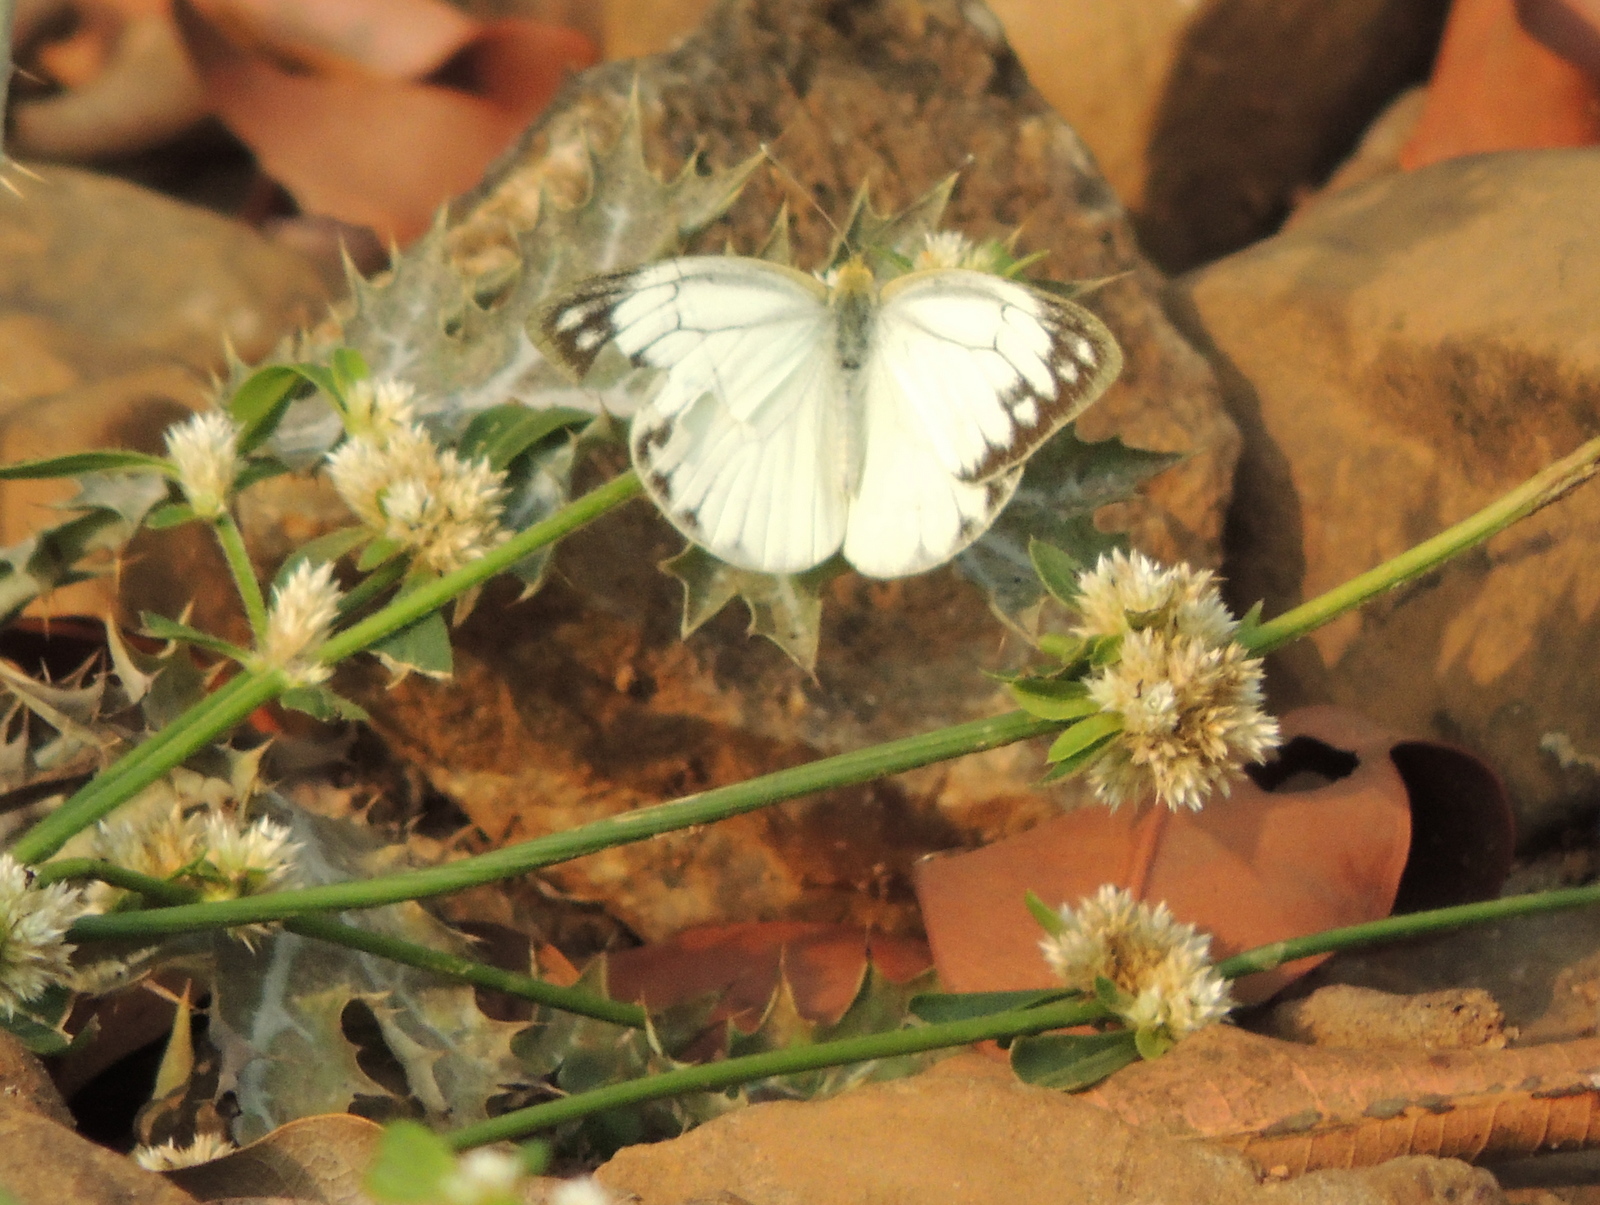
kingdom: Animalia
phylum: Arthropoda
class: Insecta
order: Lepidoptera
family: Pieridae
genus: Cepora
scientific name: Cepora nerissa
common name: Common gull
